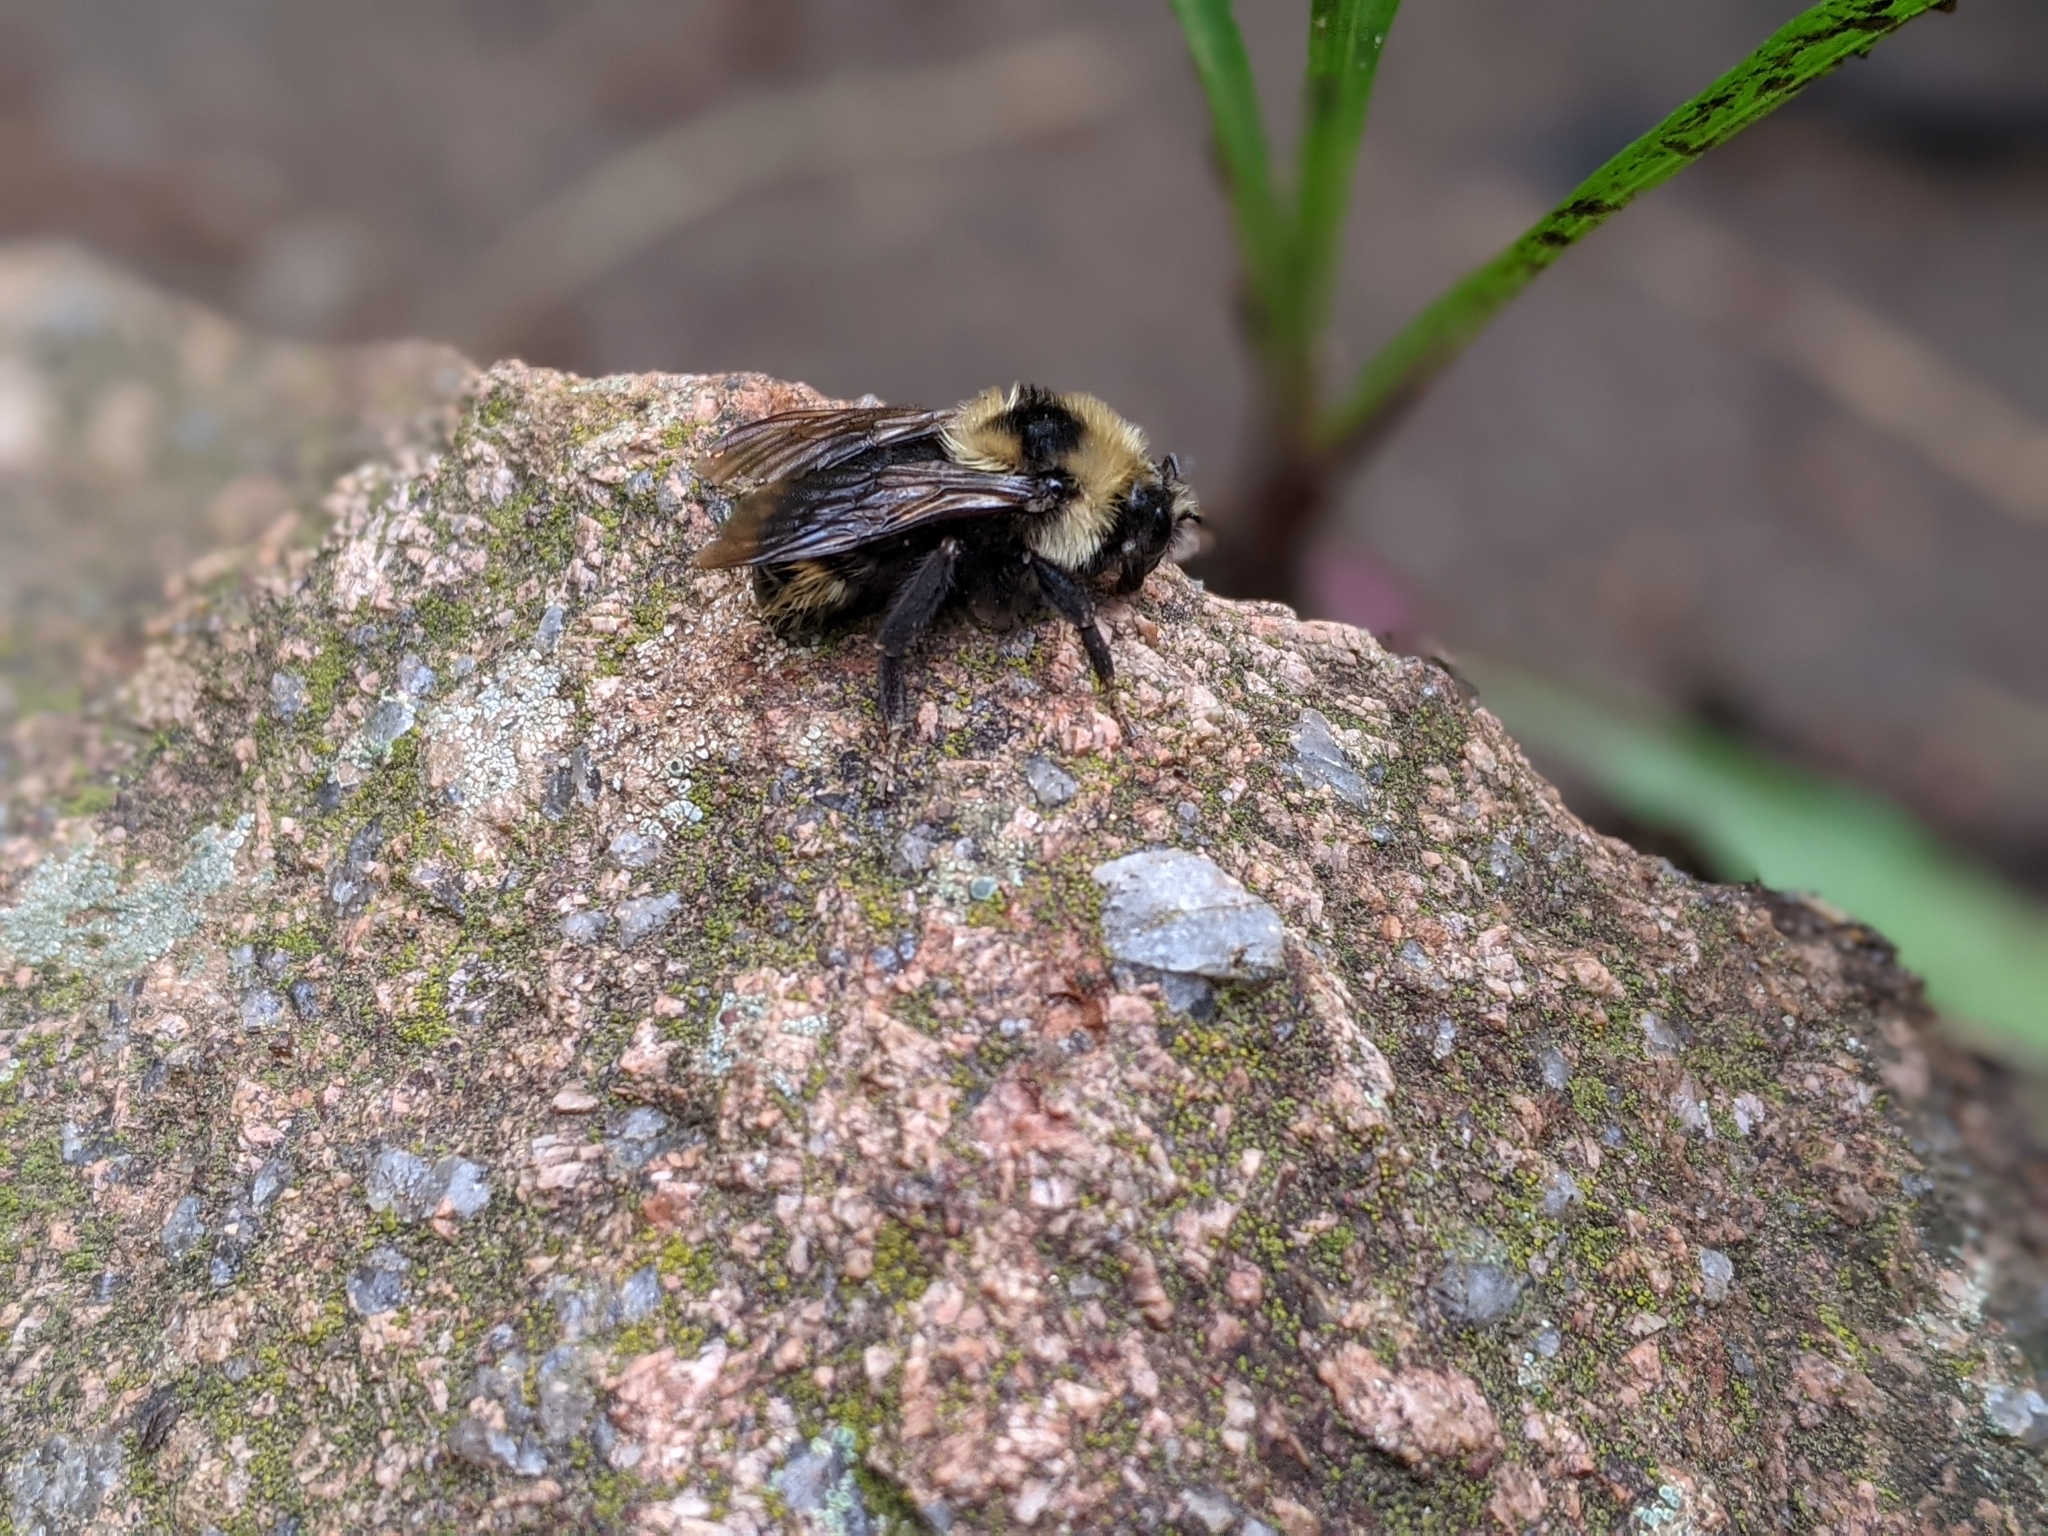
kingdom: Animalia
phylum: Arthropoda
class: Insecta
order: Hymenoptera
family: Apidae
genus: Bombus
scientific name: Bombus insularis
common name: Indiscriminate cuckoo bumble bee
